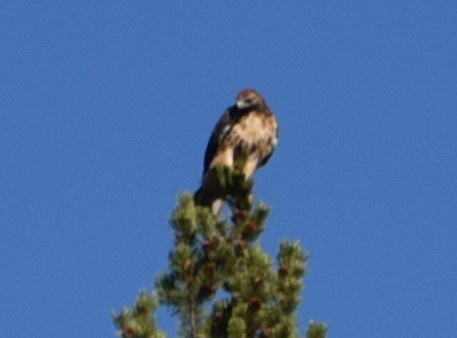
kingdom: Animalia
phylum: Chordata
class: Aves
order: Accipitriformes
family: Accipitridae
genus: Buteo
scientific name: Buteo jamaicensis
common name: Red-tailed hawk
